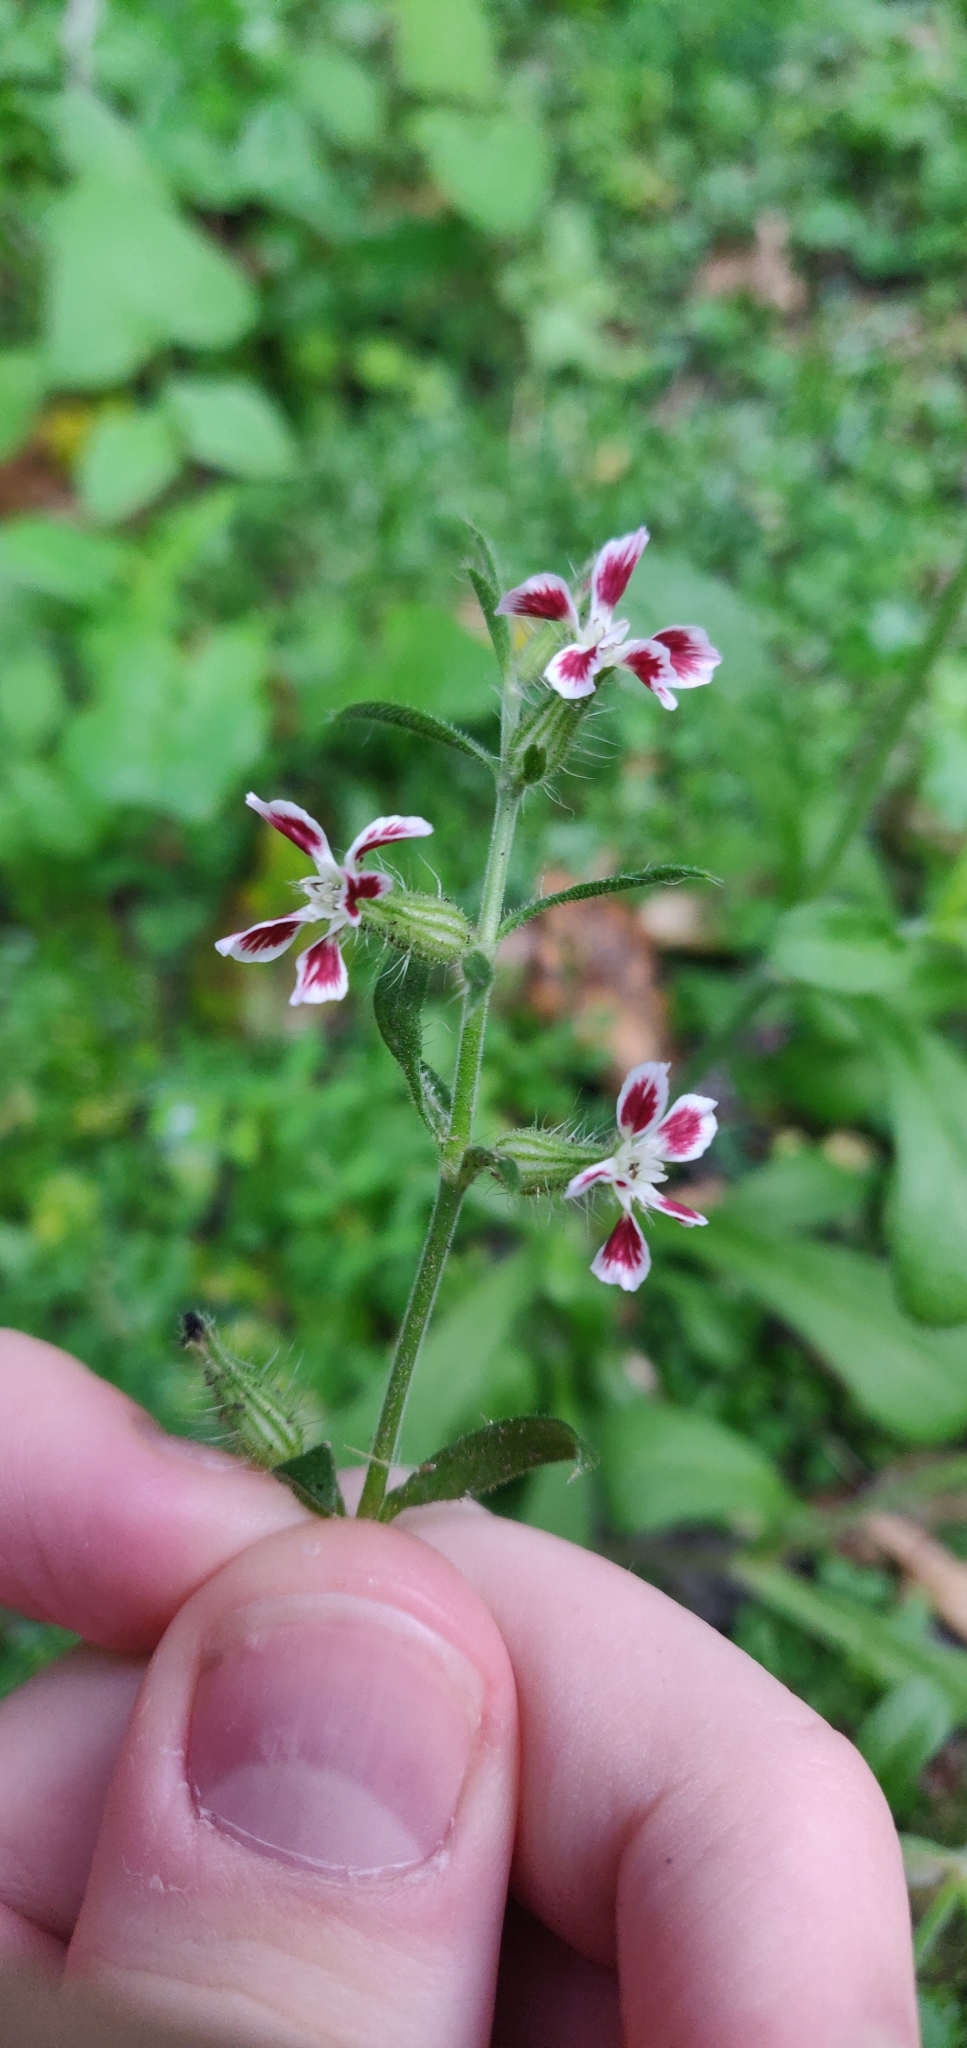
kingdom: Plantae
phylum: Tracheophyta
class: Magnoliopsida
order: Caryophyllales
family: Caryophyllaceae
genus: Silene
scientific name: Silene gallica
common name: Small-flowered catchfly
